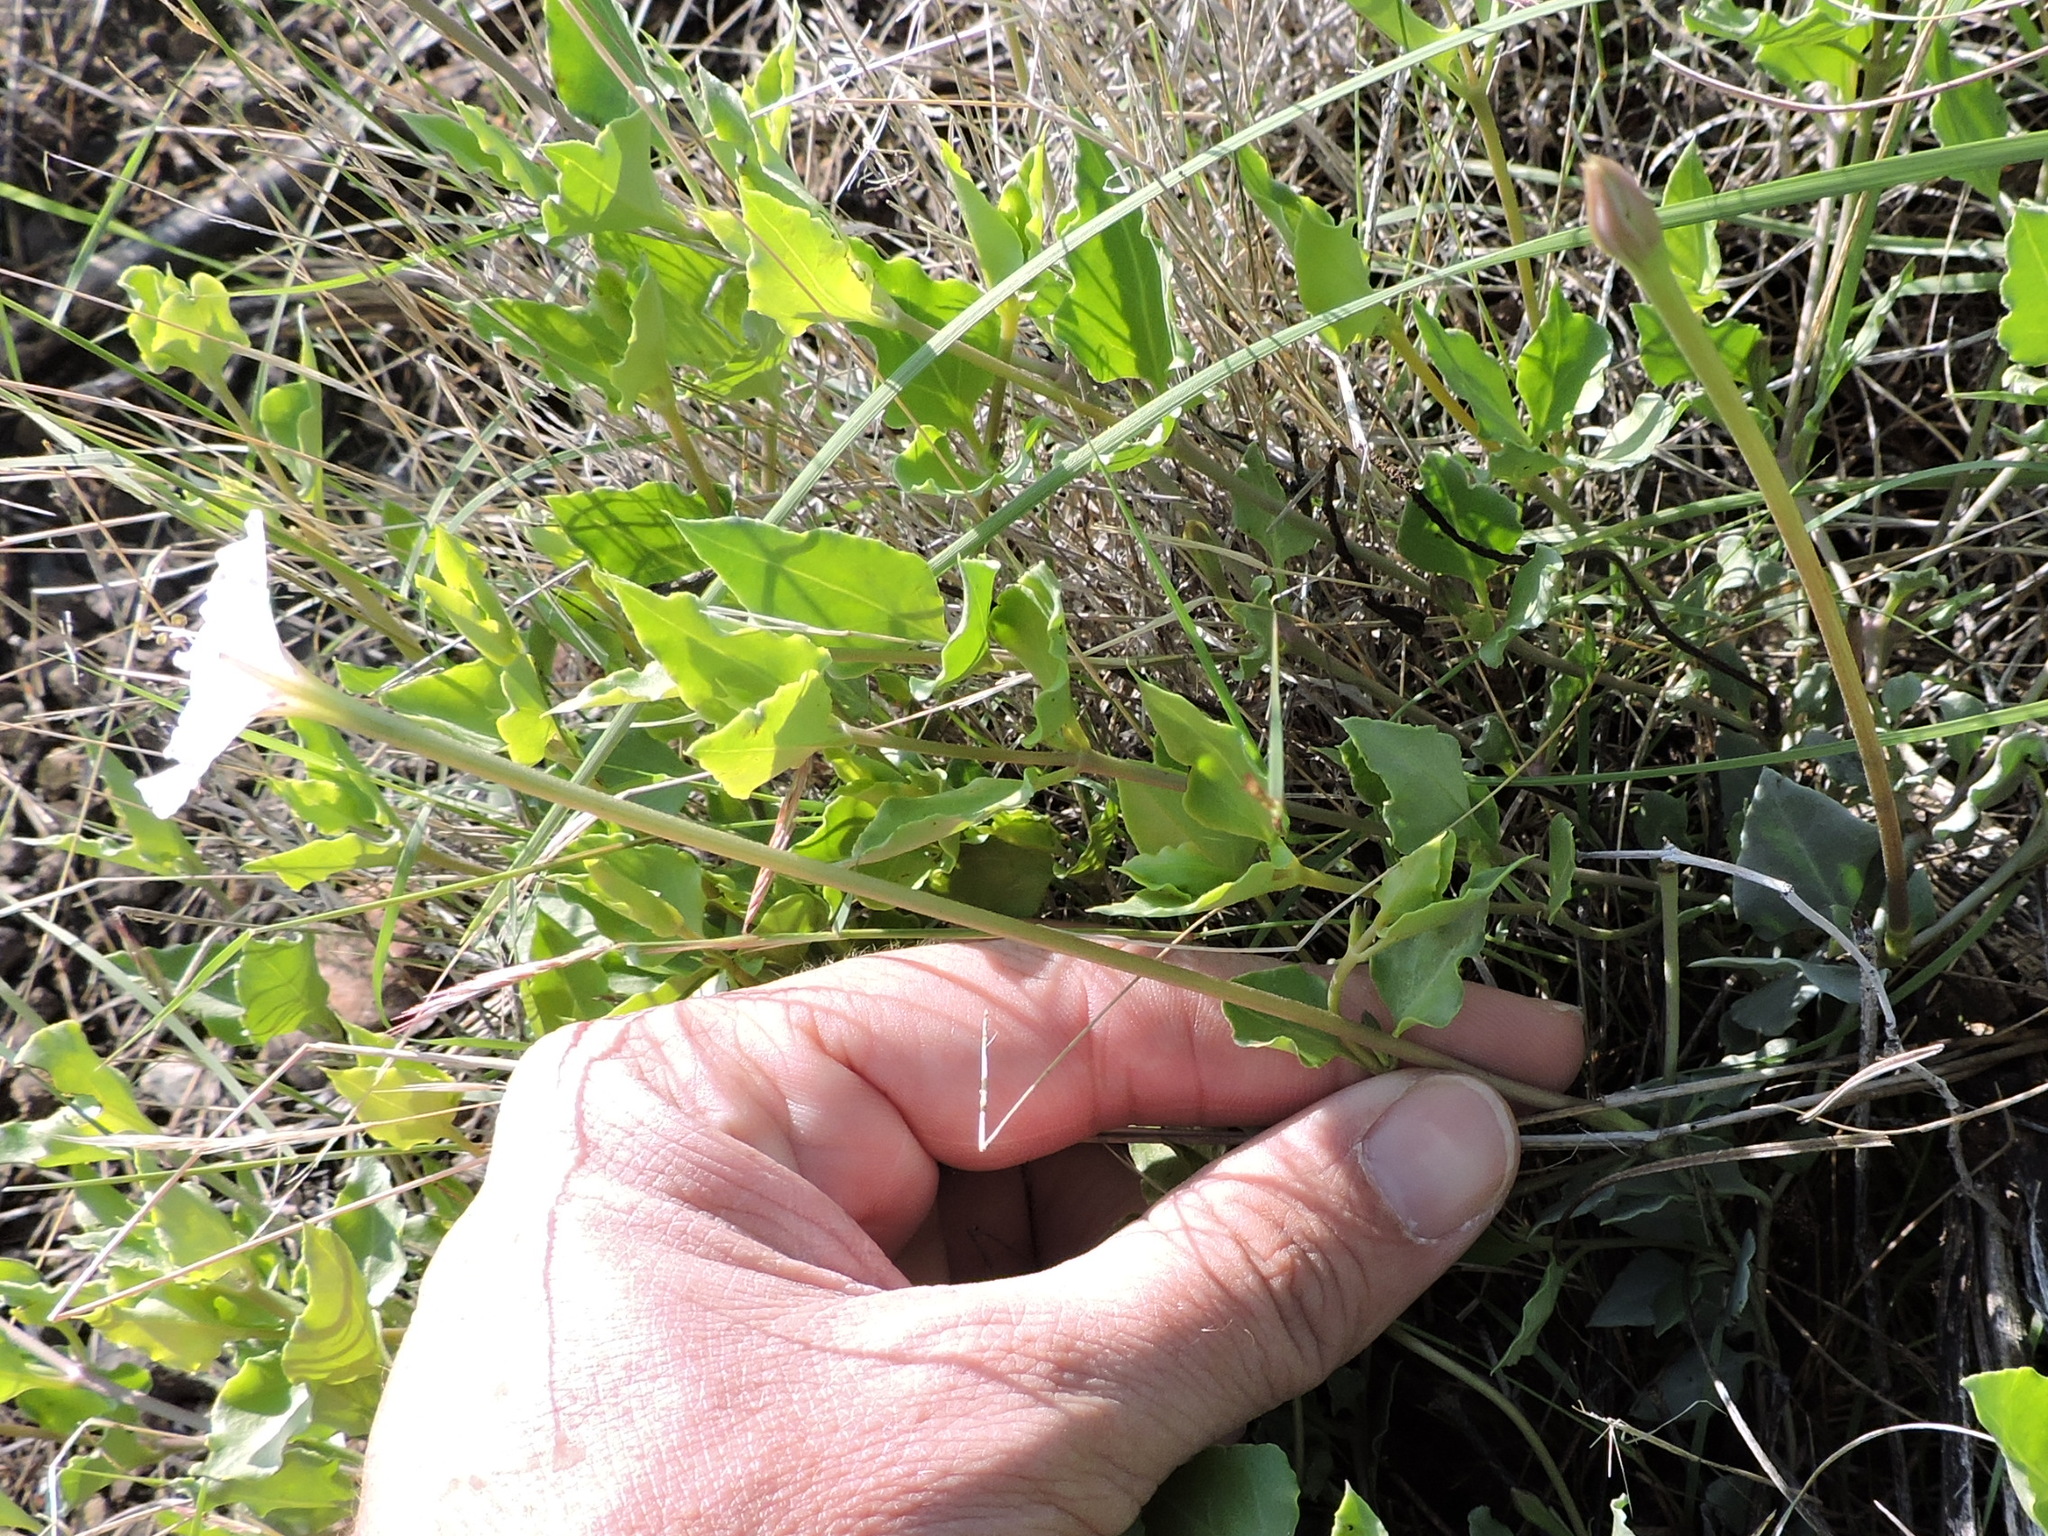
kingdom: Plantae
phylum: Tracheophyta
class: Magnoliopsida
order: Caryophyllales
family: Nyctaginaceae
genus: Acleisanthes
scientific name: Acleisanthes longiflora
